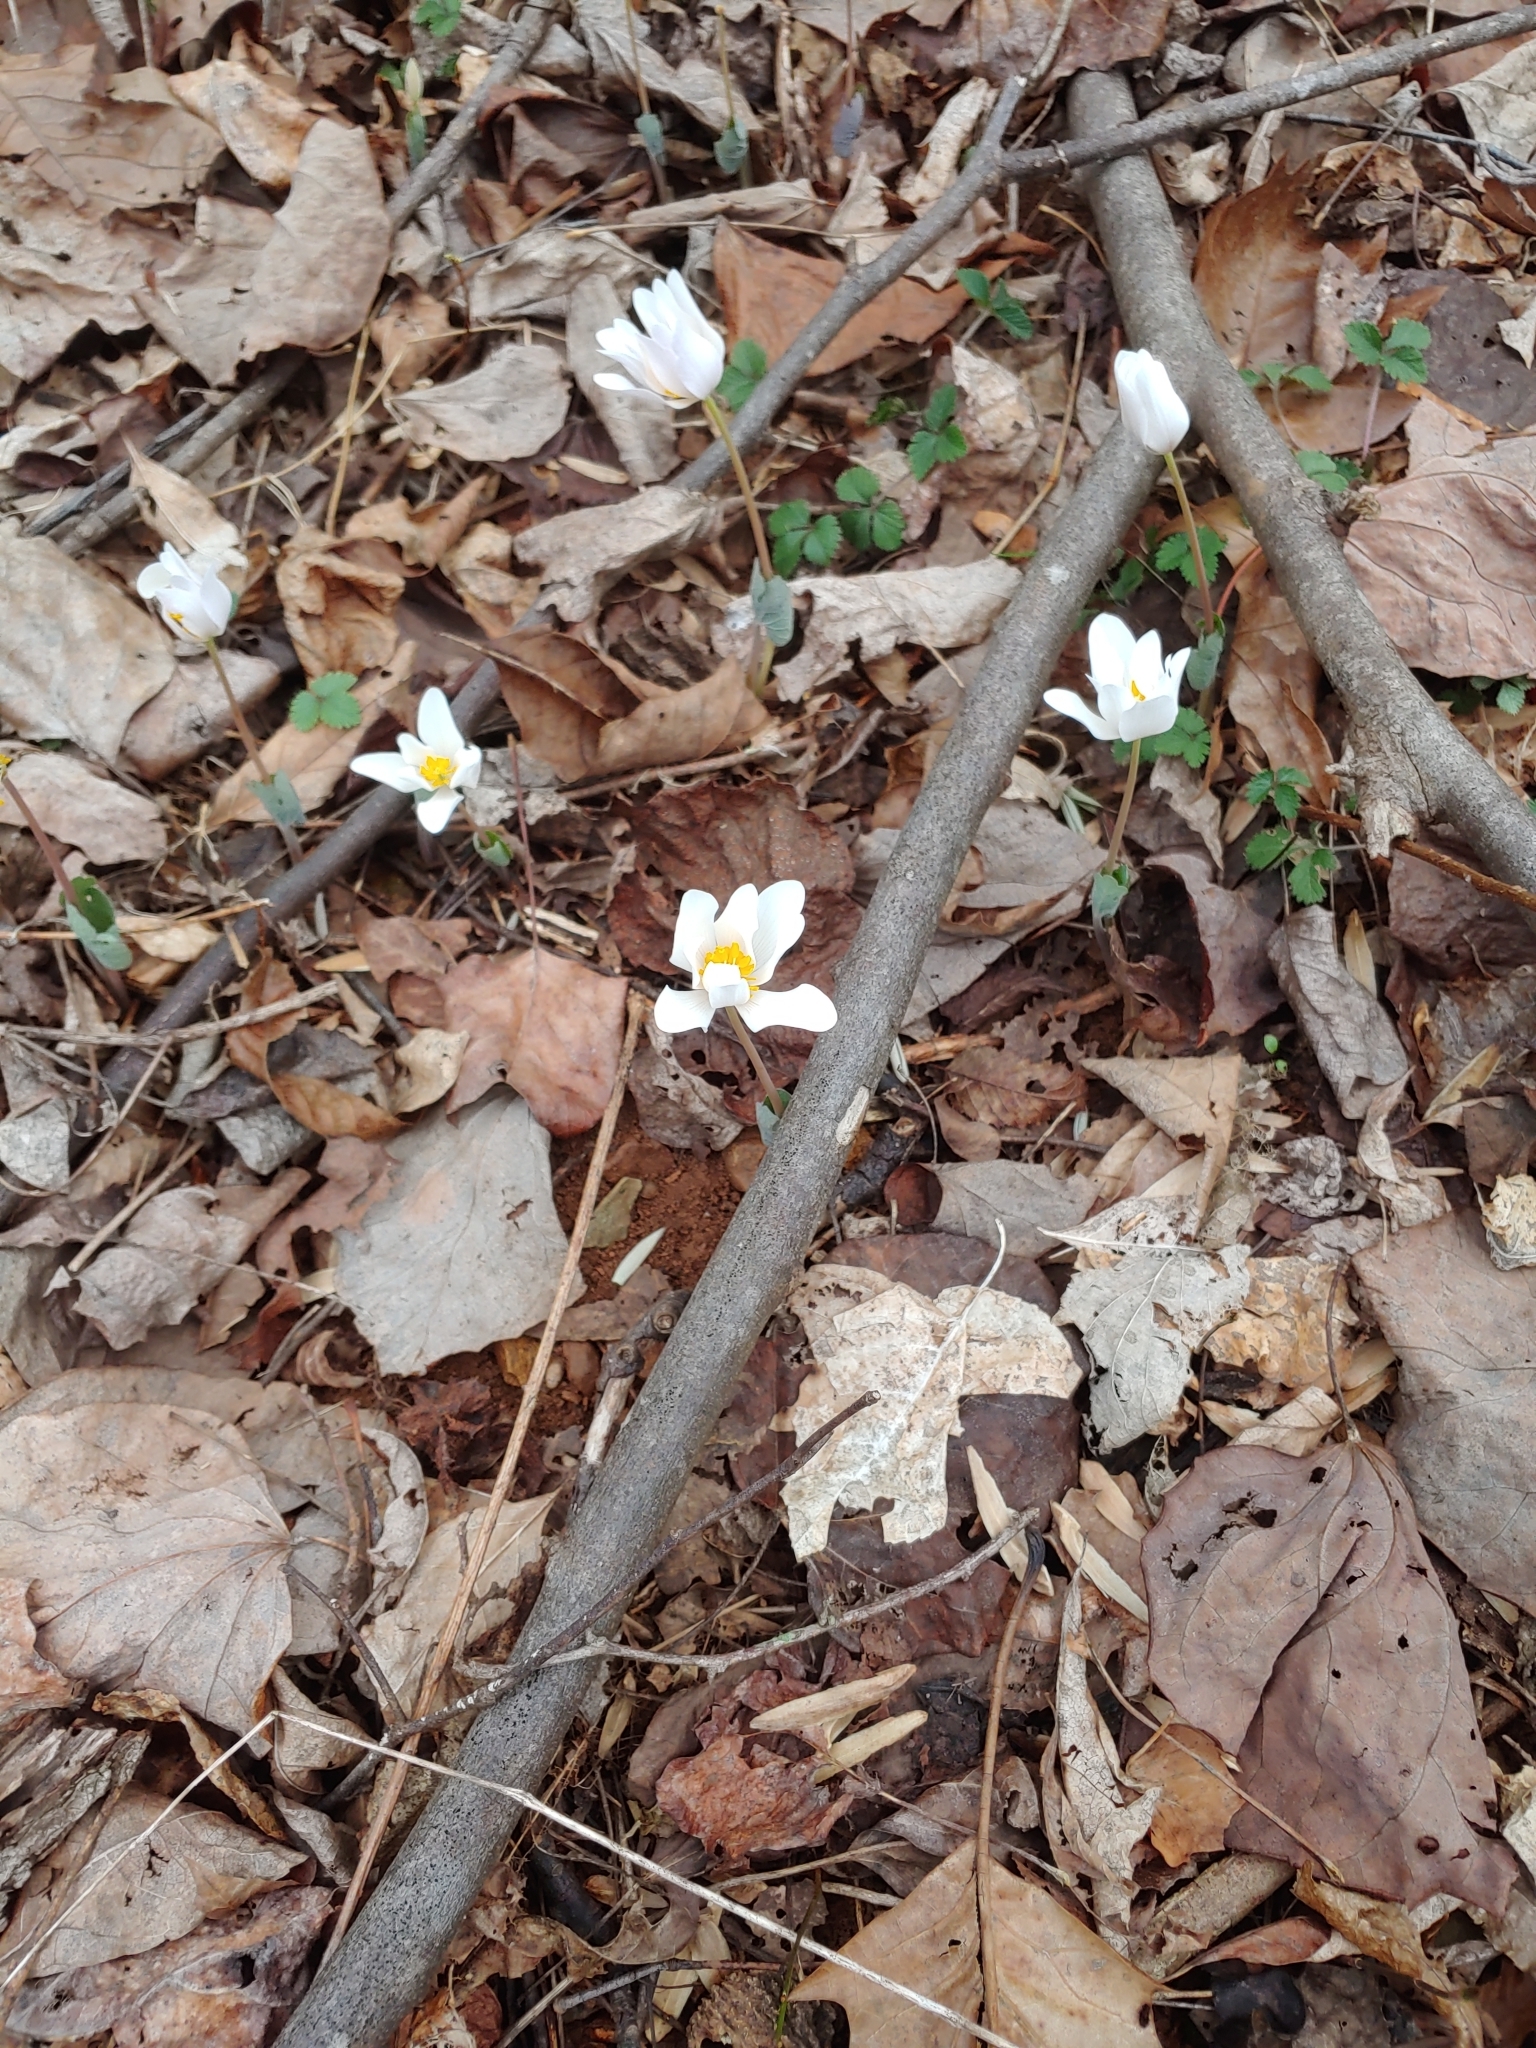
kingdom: Plantae
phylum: Tracheophyta
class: Magnoliopsida
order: Ranunculales
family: Papaveraceae
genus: Sanguinaria
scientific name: Sanguinaria canadensis
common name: Bloodroot
